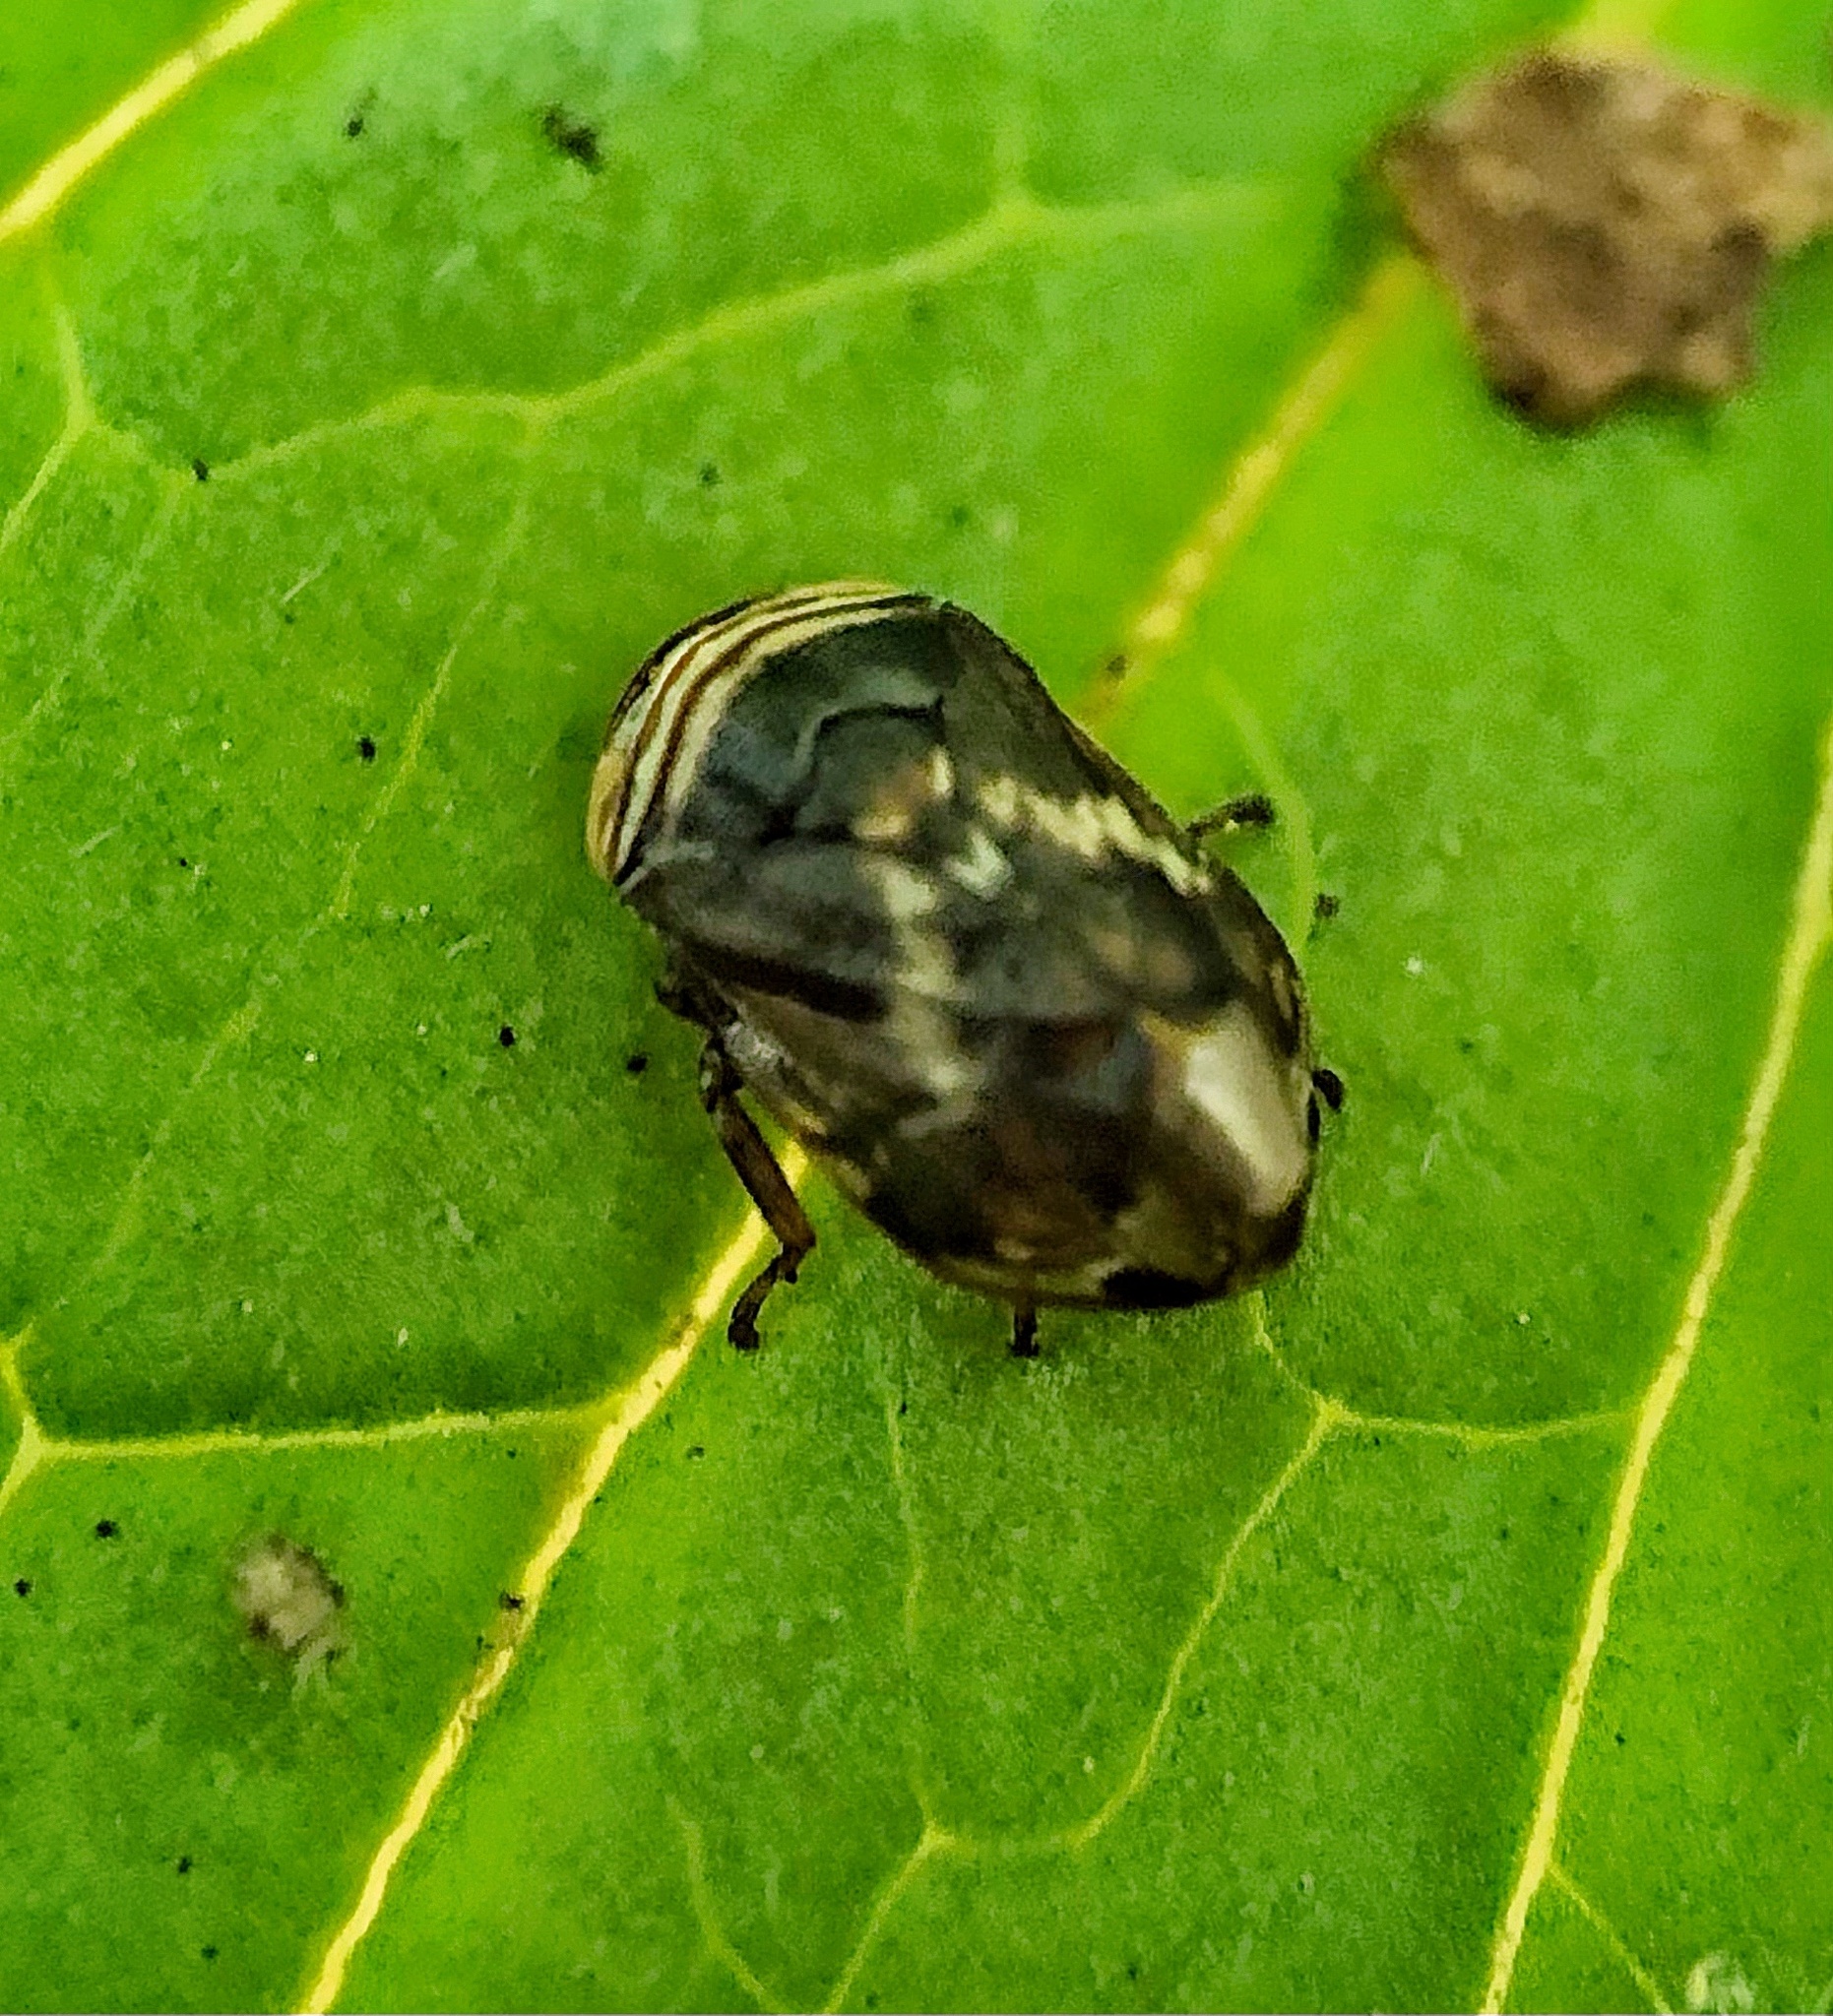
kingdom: Animalia
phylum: Arthropoda
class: Insecta
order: Hemiptera
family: Clastopteridae
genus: Clastoptera
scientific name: Clastoptera obtusa
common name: Alder spittlebug
